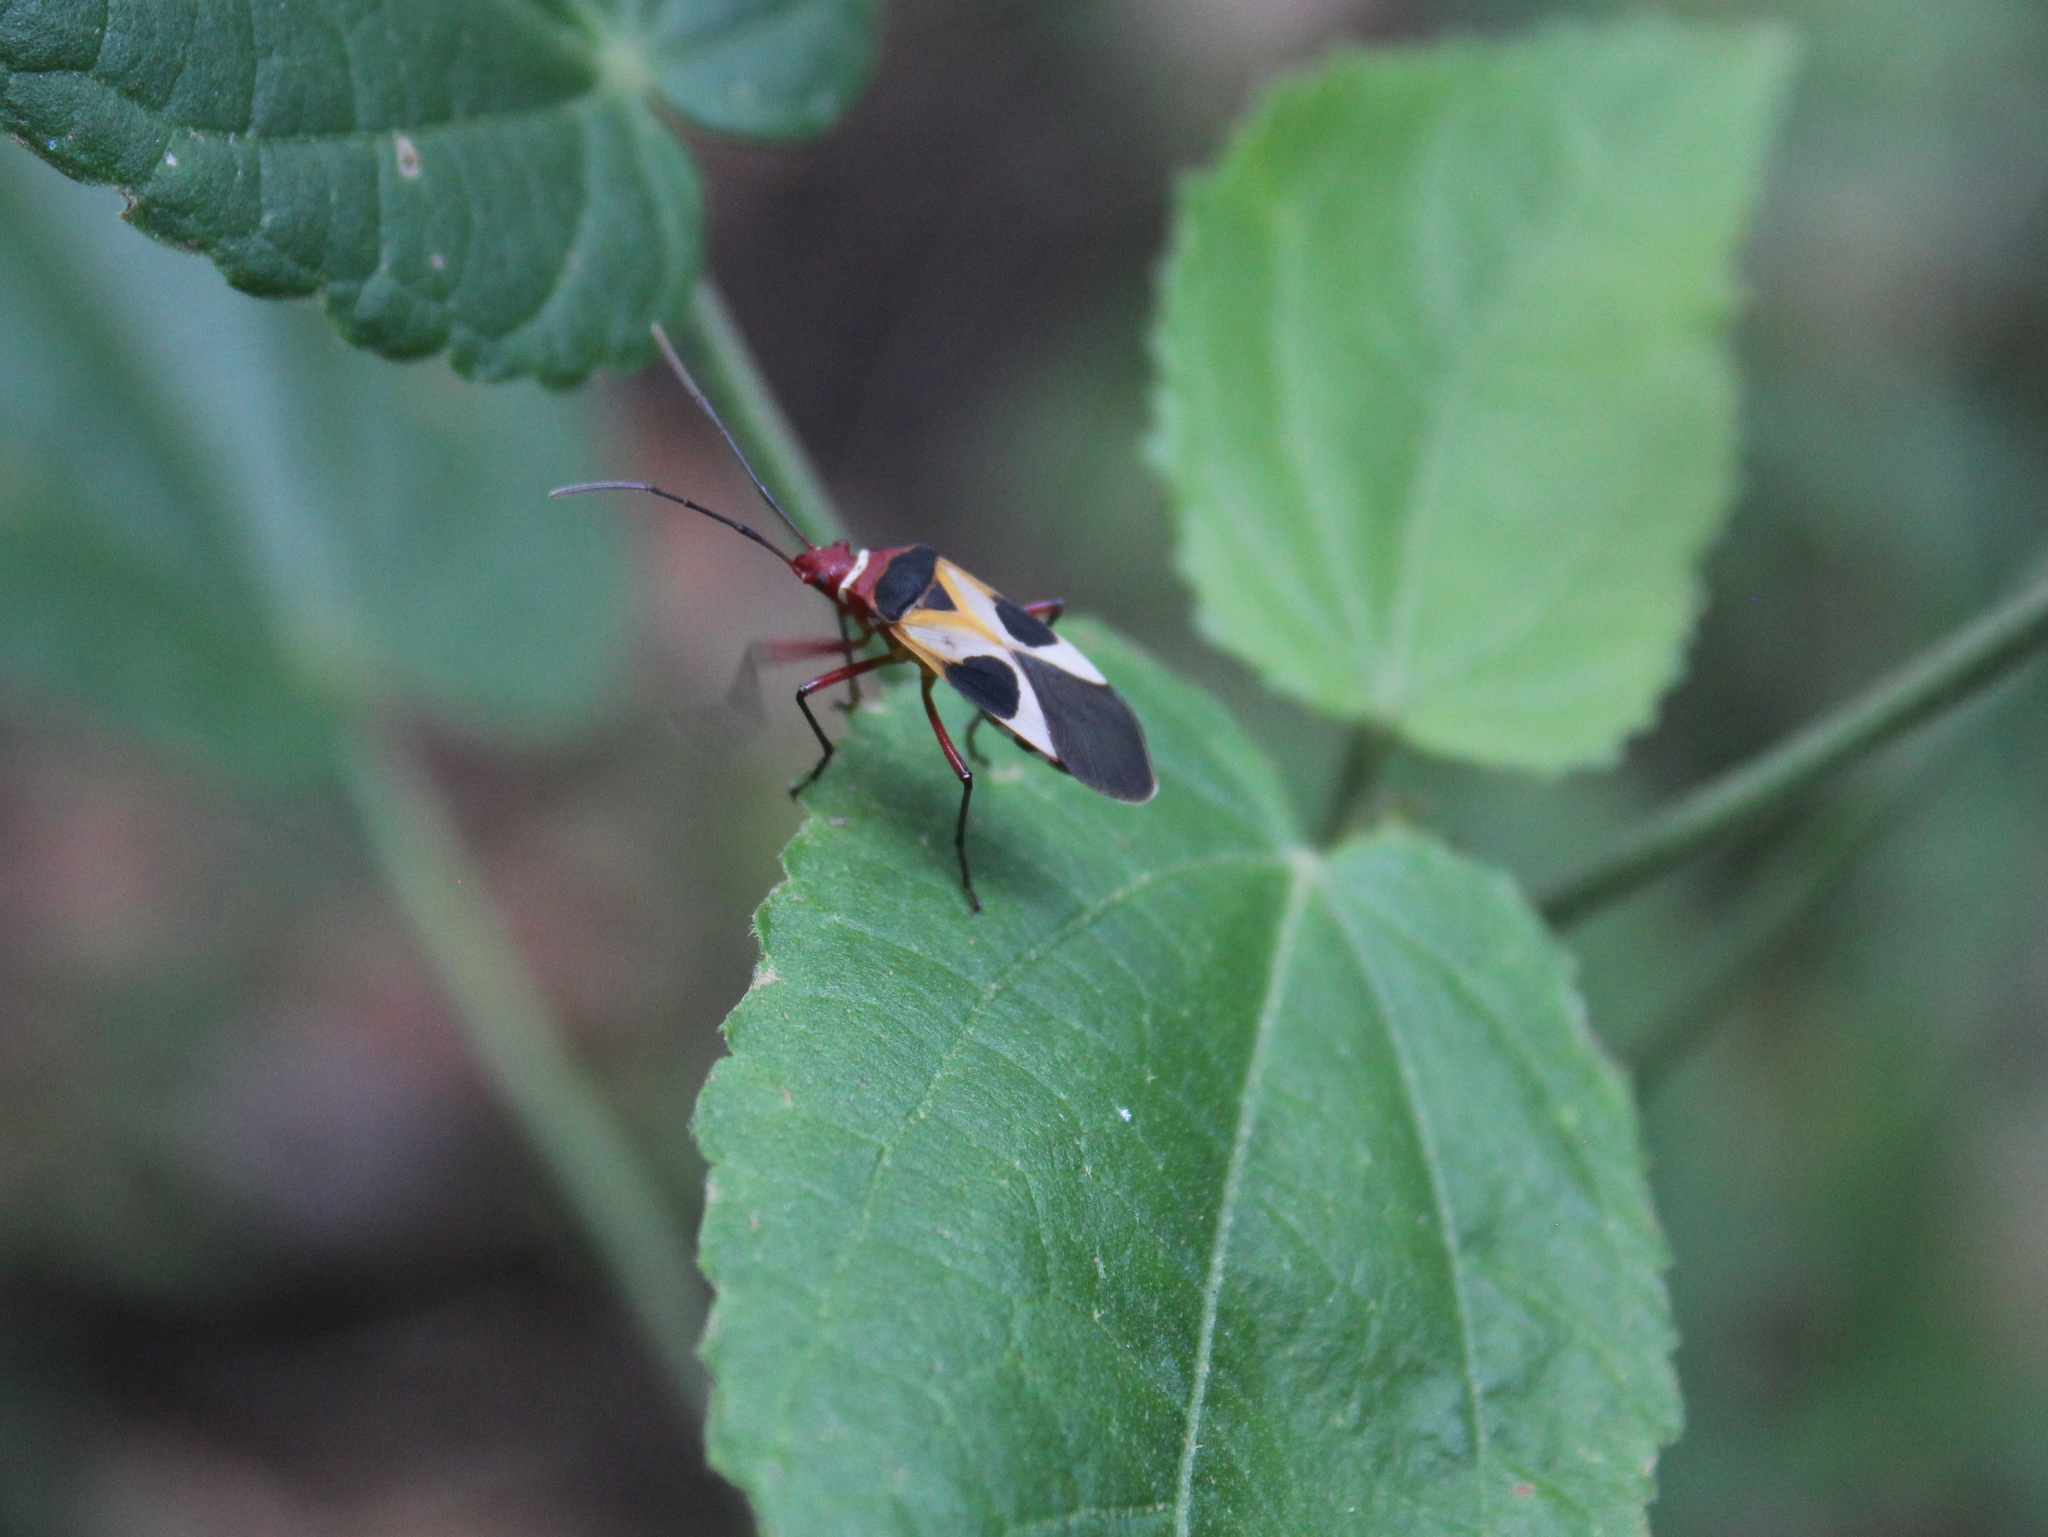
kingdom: Animalia
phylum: Arthropoda
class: Insecta
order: Hemiptera
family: Pyrrhocoridae
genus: Dysdercus
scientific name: Dysdercus concinnus
